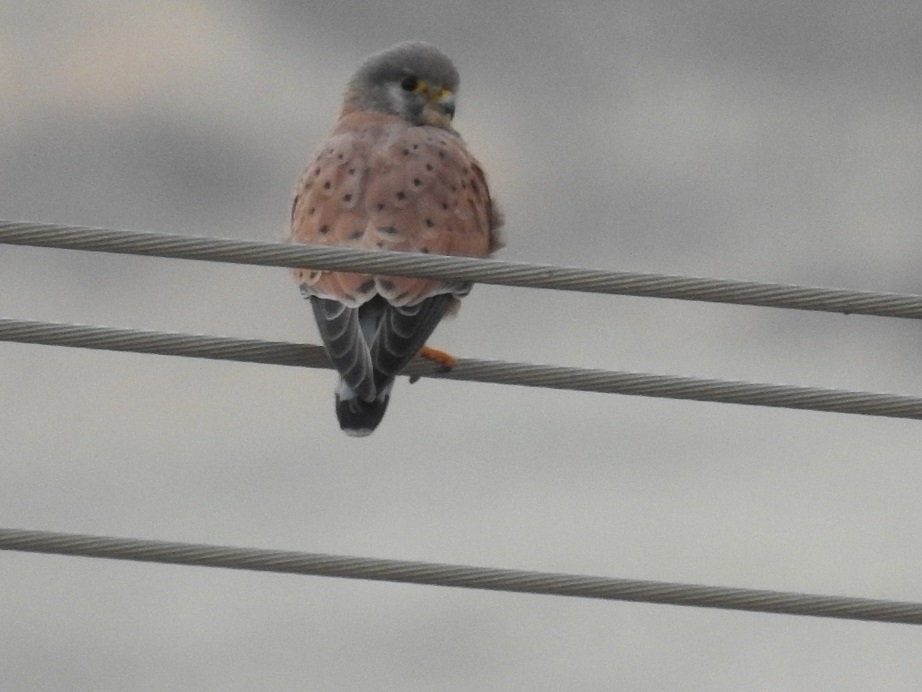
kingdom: Animalia
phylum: Chordata
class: Aves
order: Falconiformes
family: Falconidae
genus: Falco
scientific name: Falco tinnunculus
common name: Common kestrel
